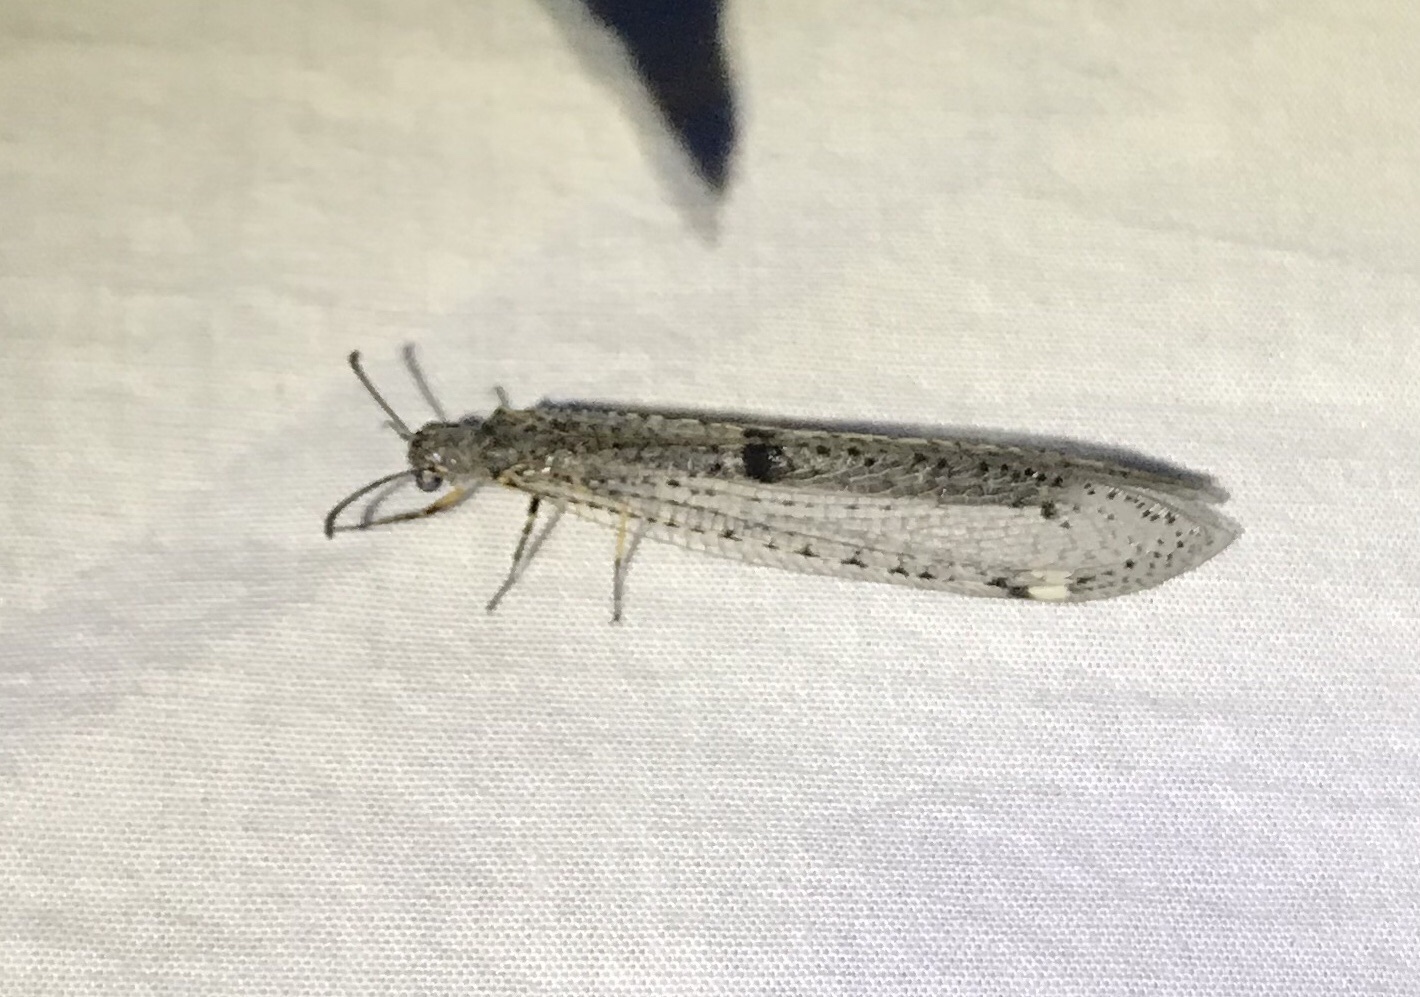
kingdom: Animalia
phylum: Arthropoda
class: Insecta
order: Neuroptera
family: Myrmeleontidae
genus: Weeleus
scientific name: Weeleus acutus
